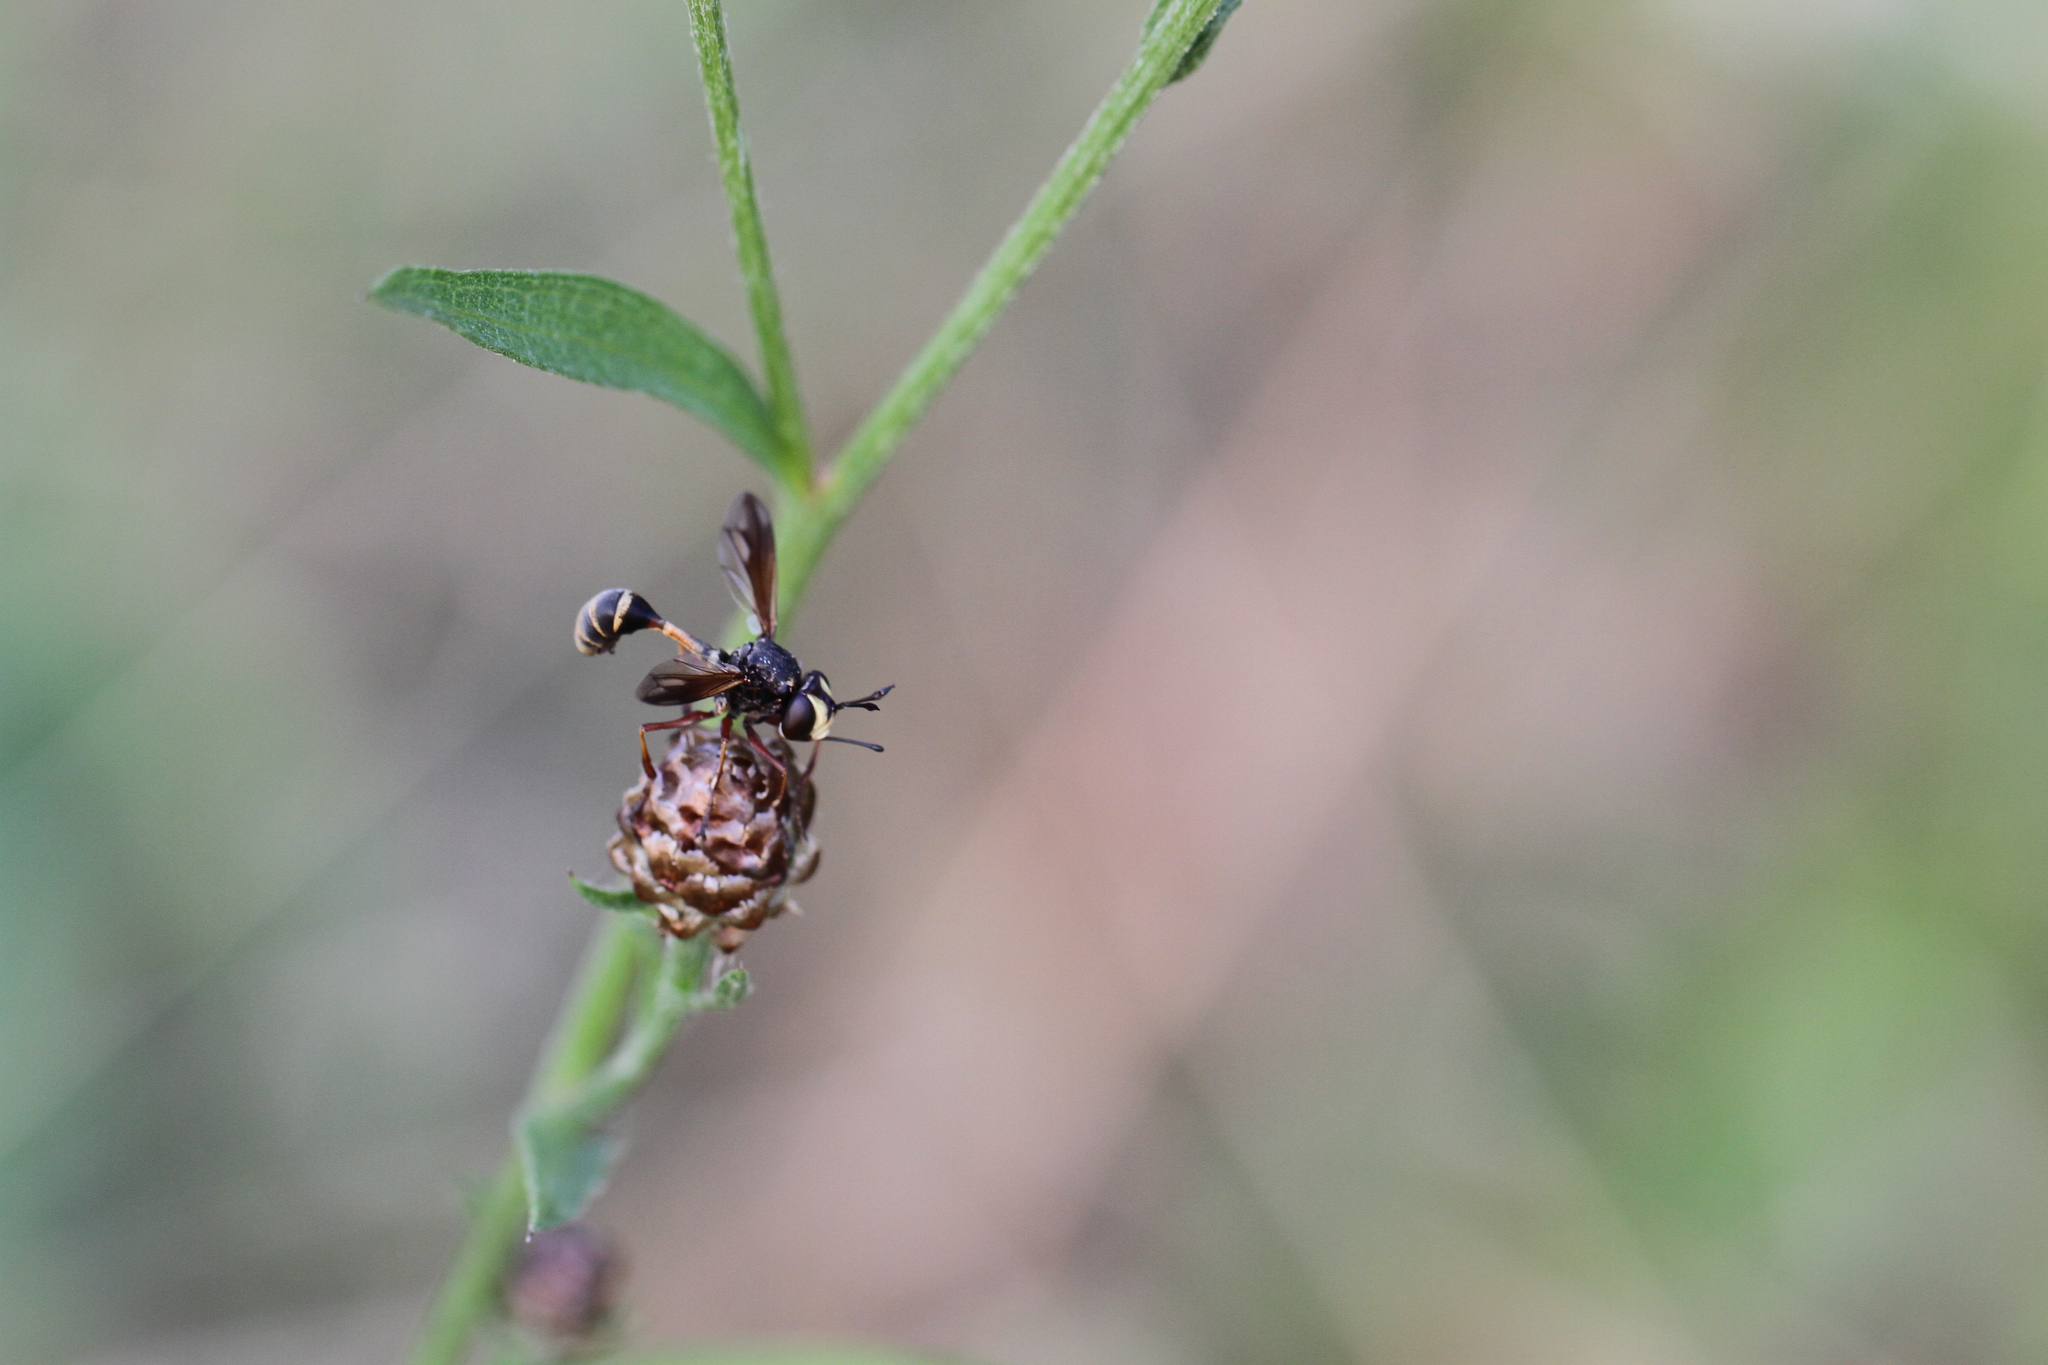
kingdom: Animalia
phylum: Arthropoda
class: Insecta
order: Diptera
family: Conopidae
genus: Physocephala
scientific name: Physocephala rufipes
